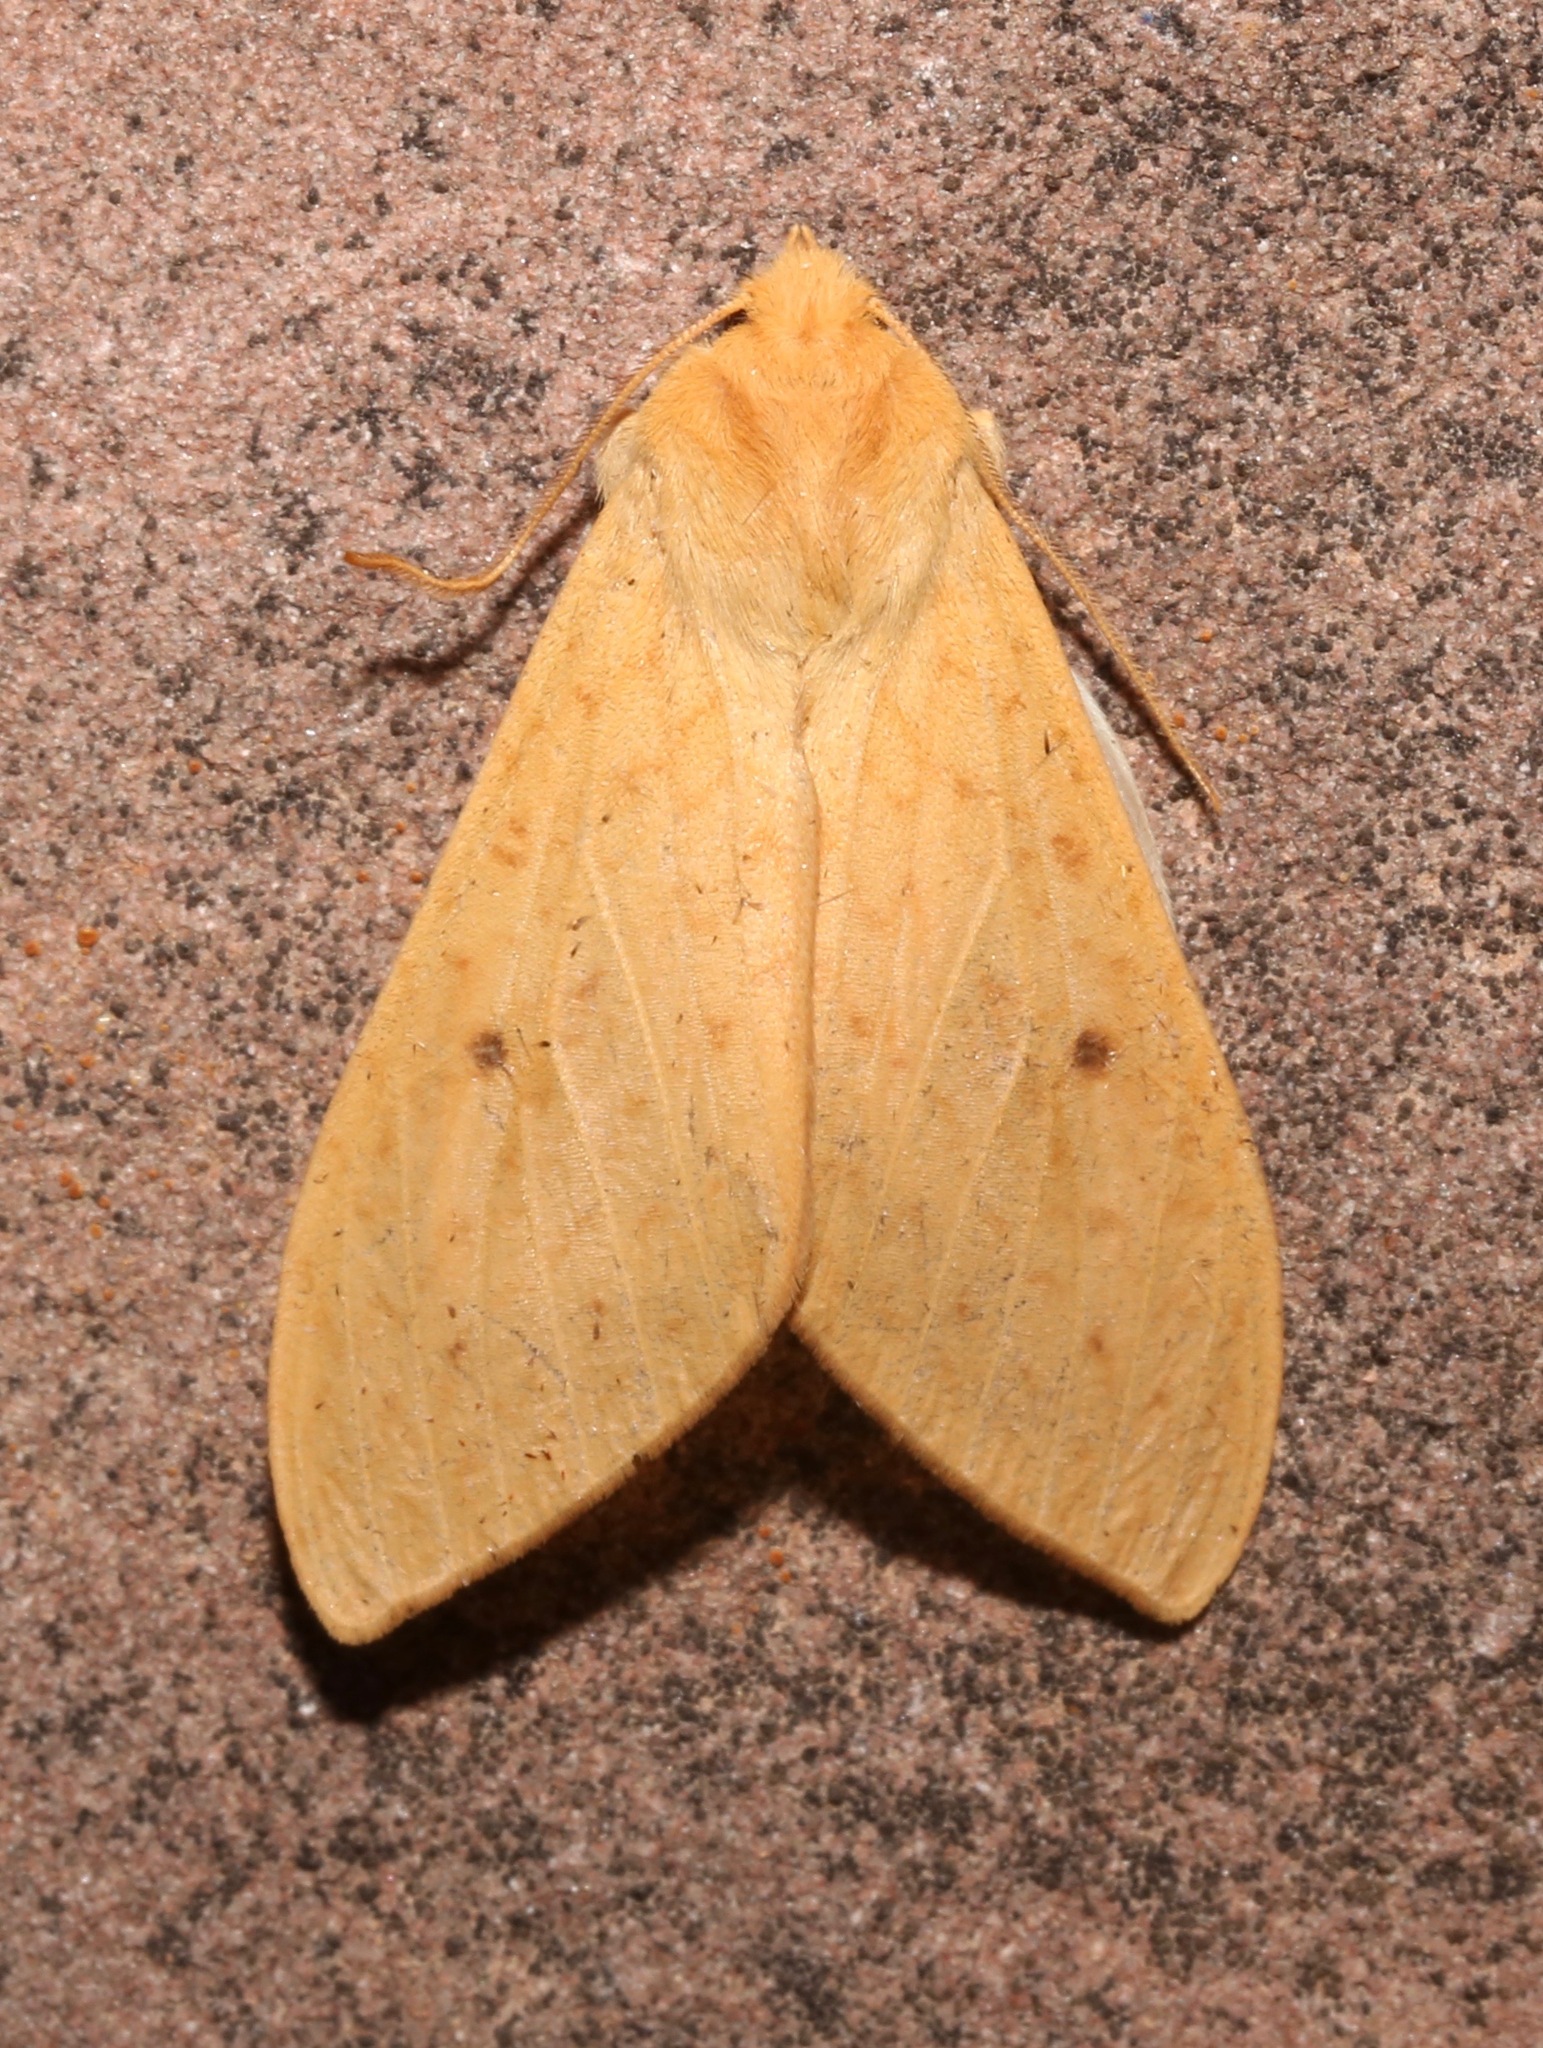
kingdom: Animalia
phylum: Arthropoda
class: Insecta
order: Lepidoptera
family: Erebidae
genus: Lophocampa
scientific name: Lophocampa pura
